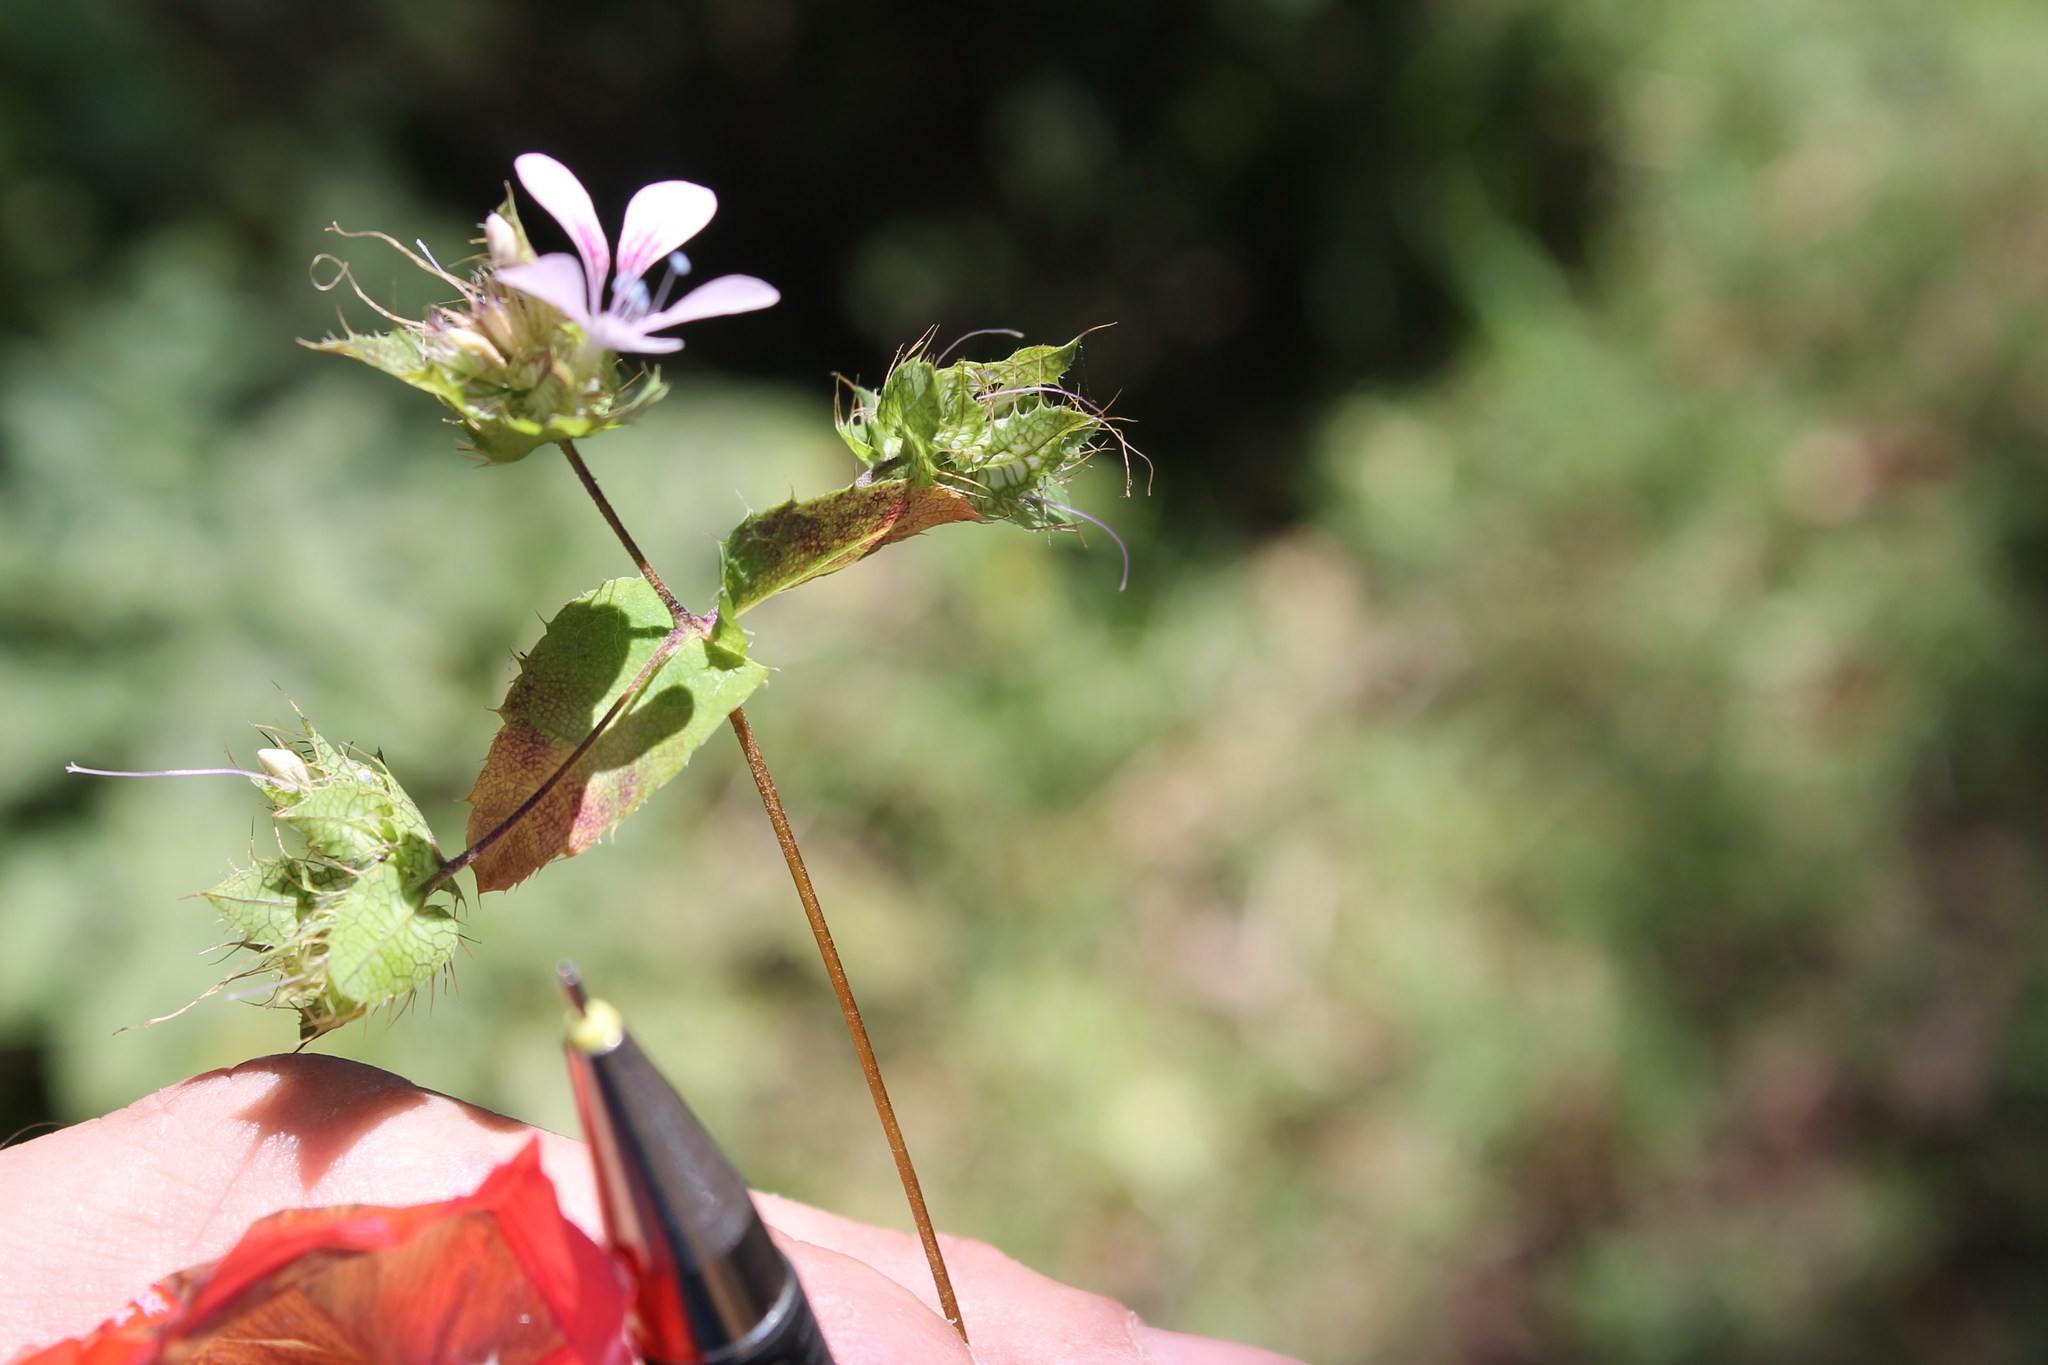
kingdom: Plantae
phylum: Tracheophyta
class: Magnoliopsida
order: Ericales
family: Polemoniaceae
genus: Loeselia
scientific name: Loeselia amplectens
